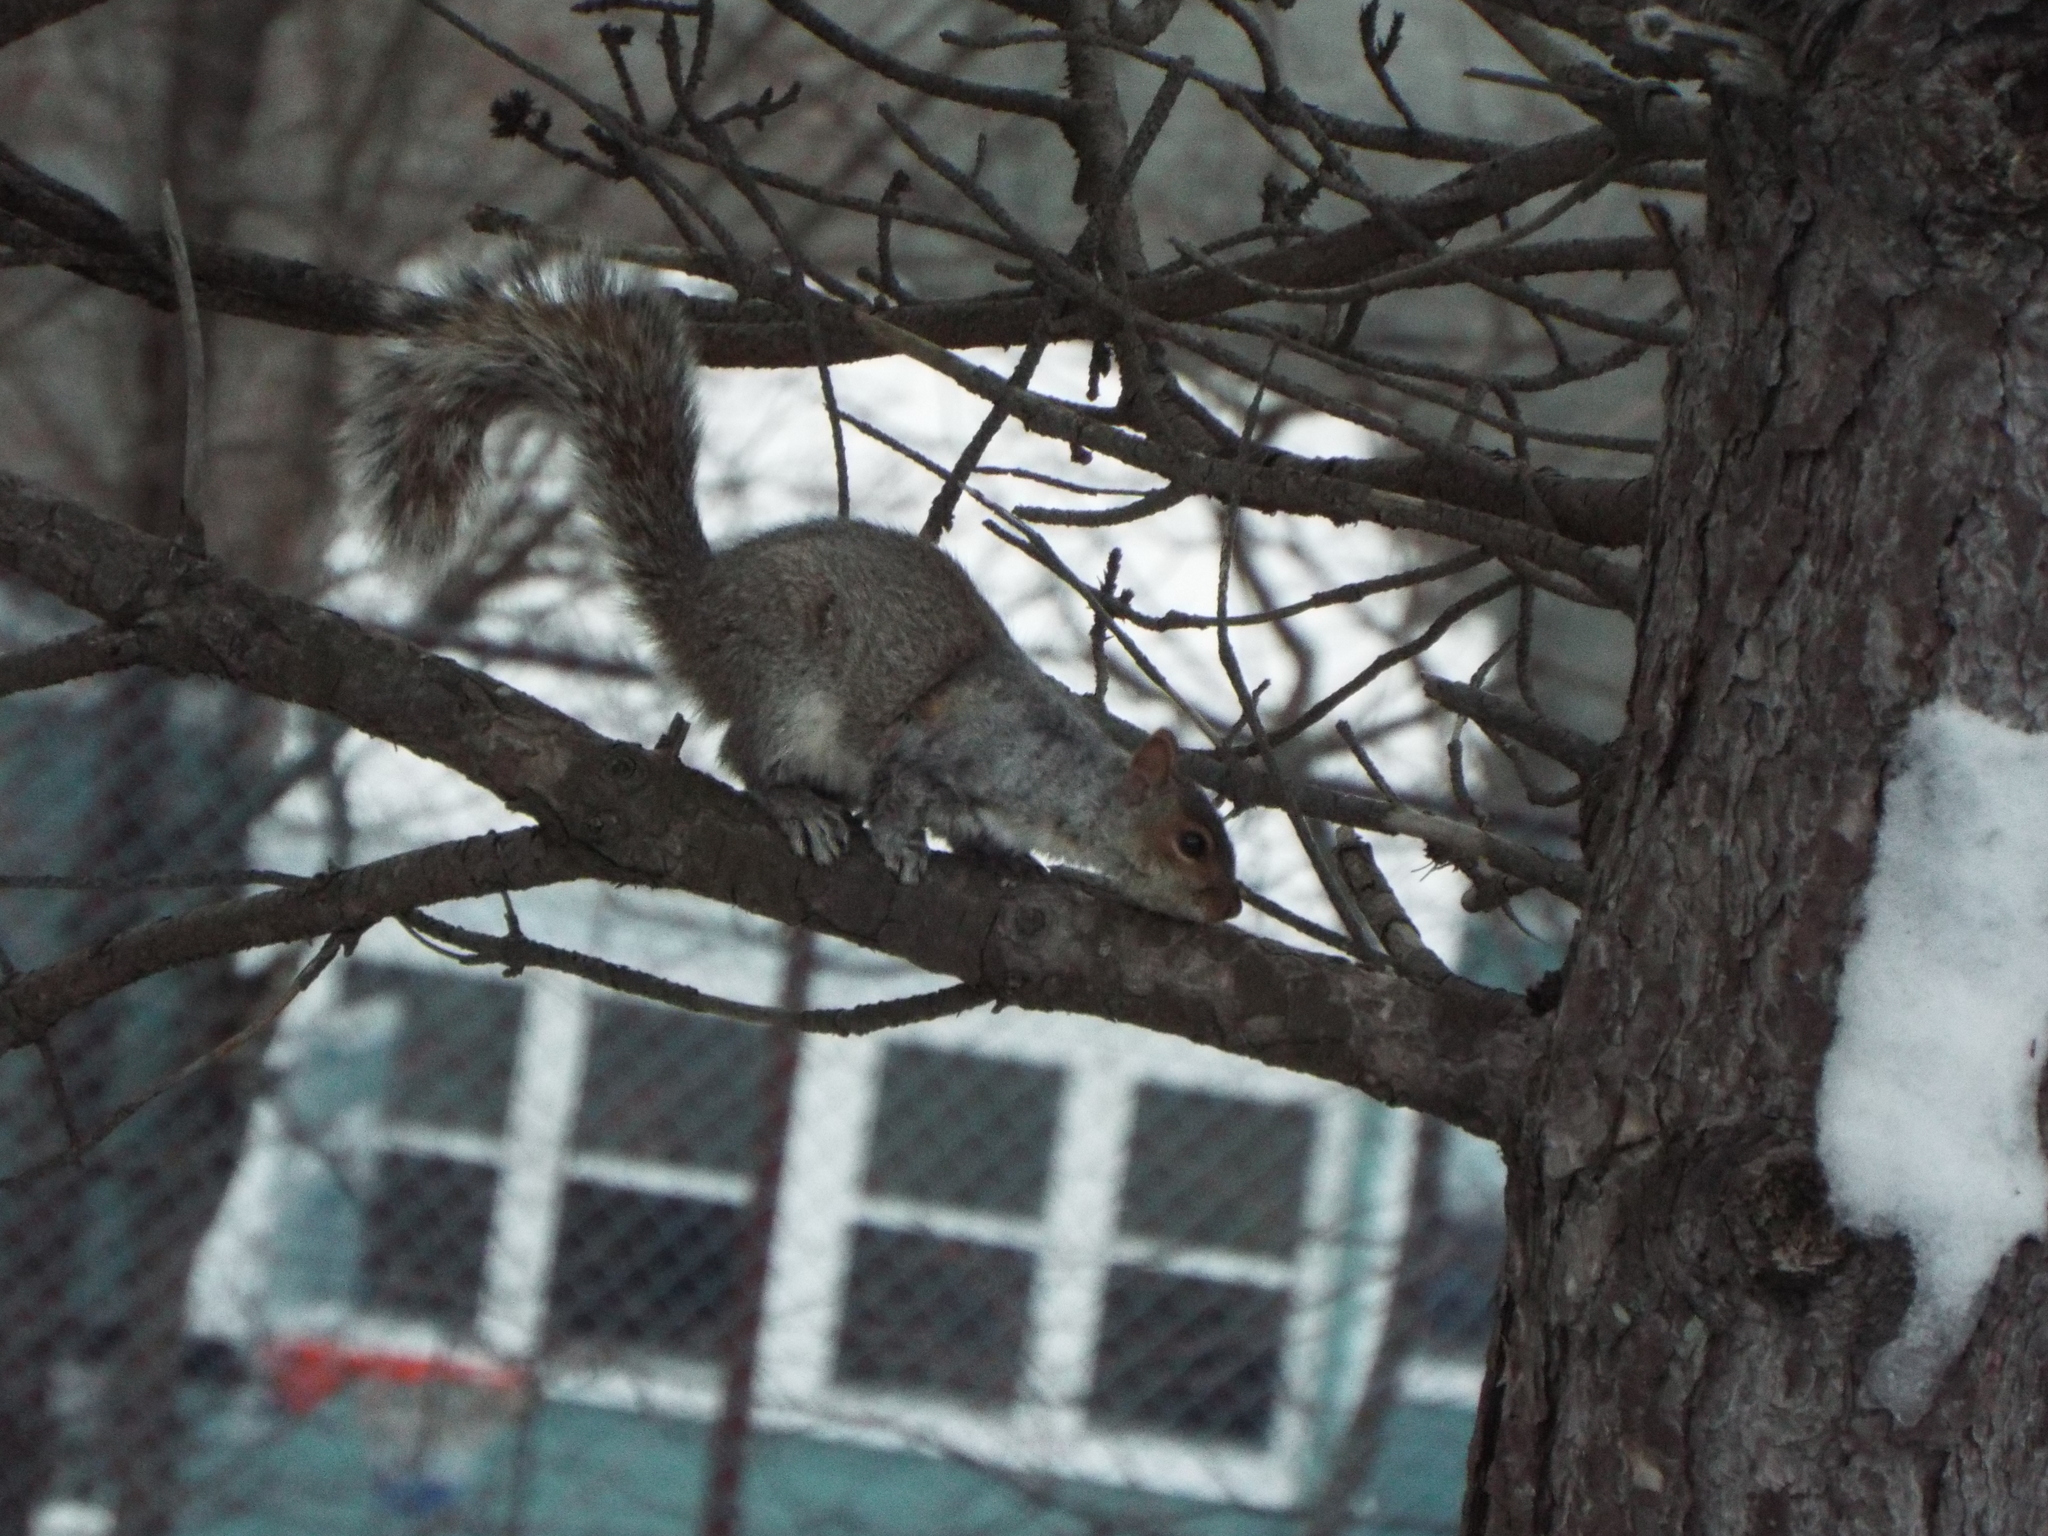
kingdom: Animalia
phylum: Chordata
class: Mammalia
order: Rodentia
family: Sciuridae
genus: Sciurus
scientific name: Sciurus carolinensis
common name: Eastern gray squirrel
